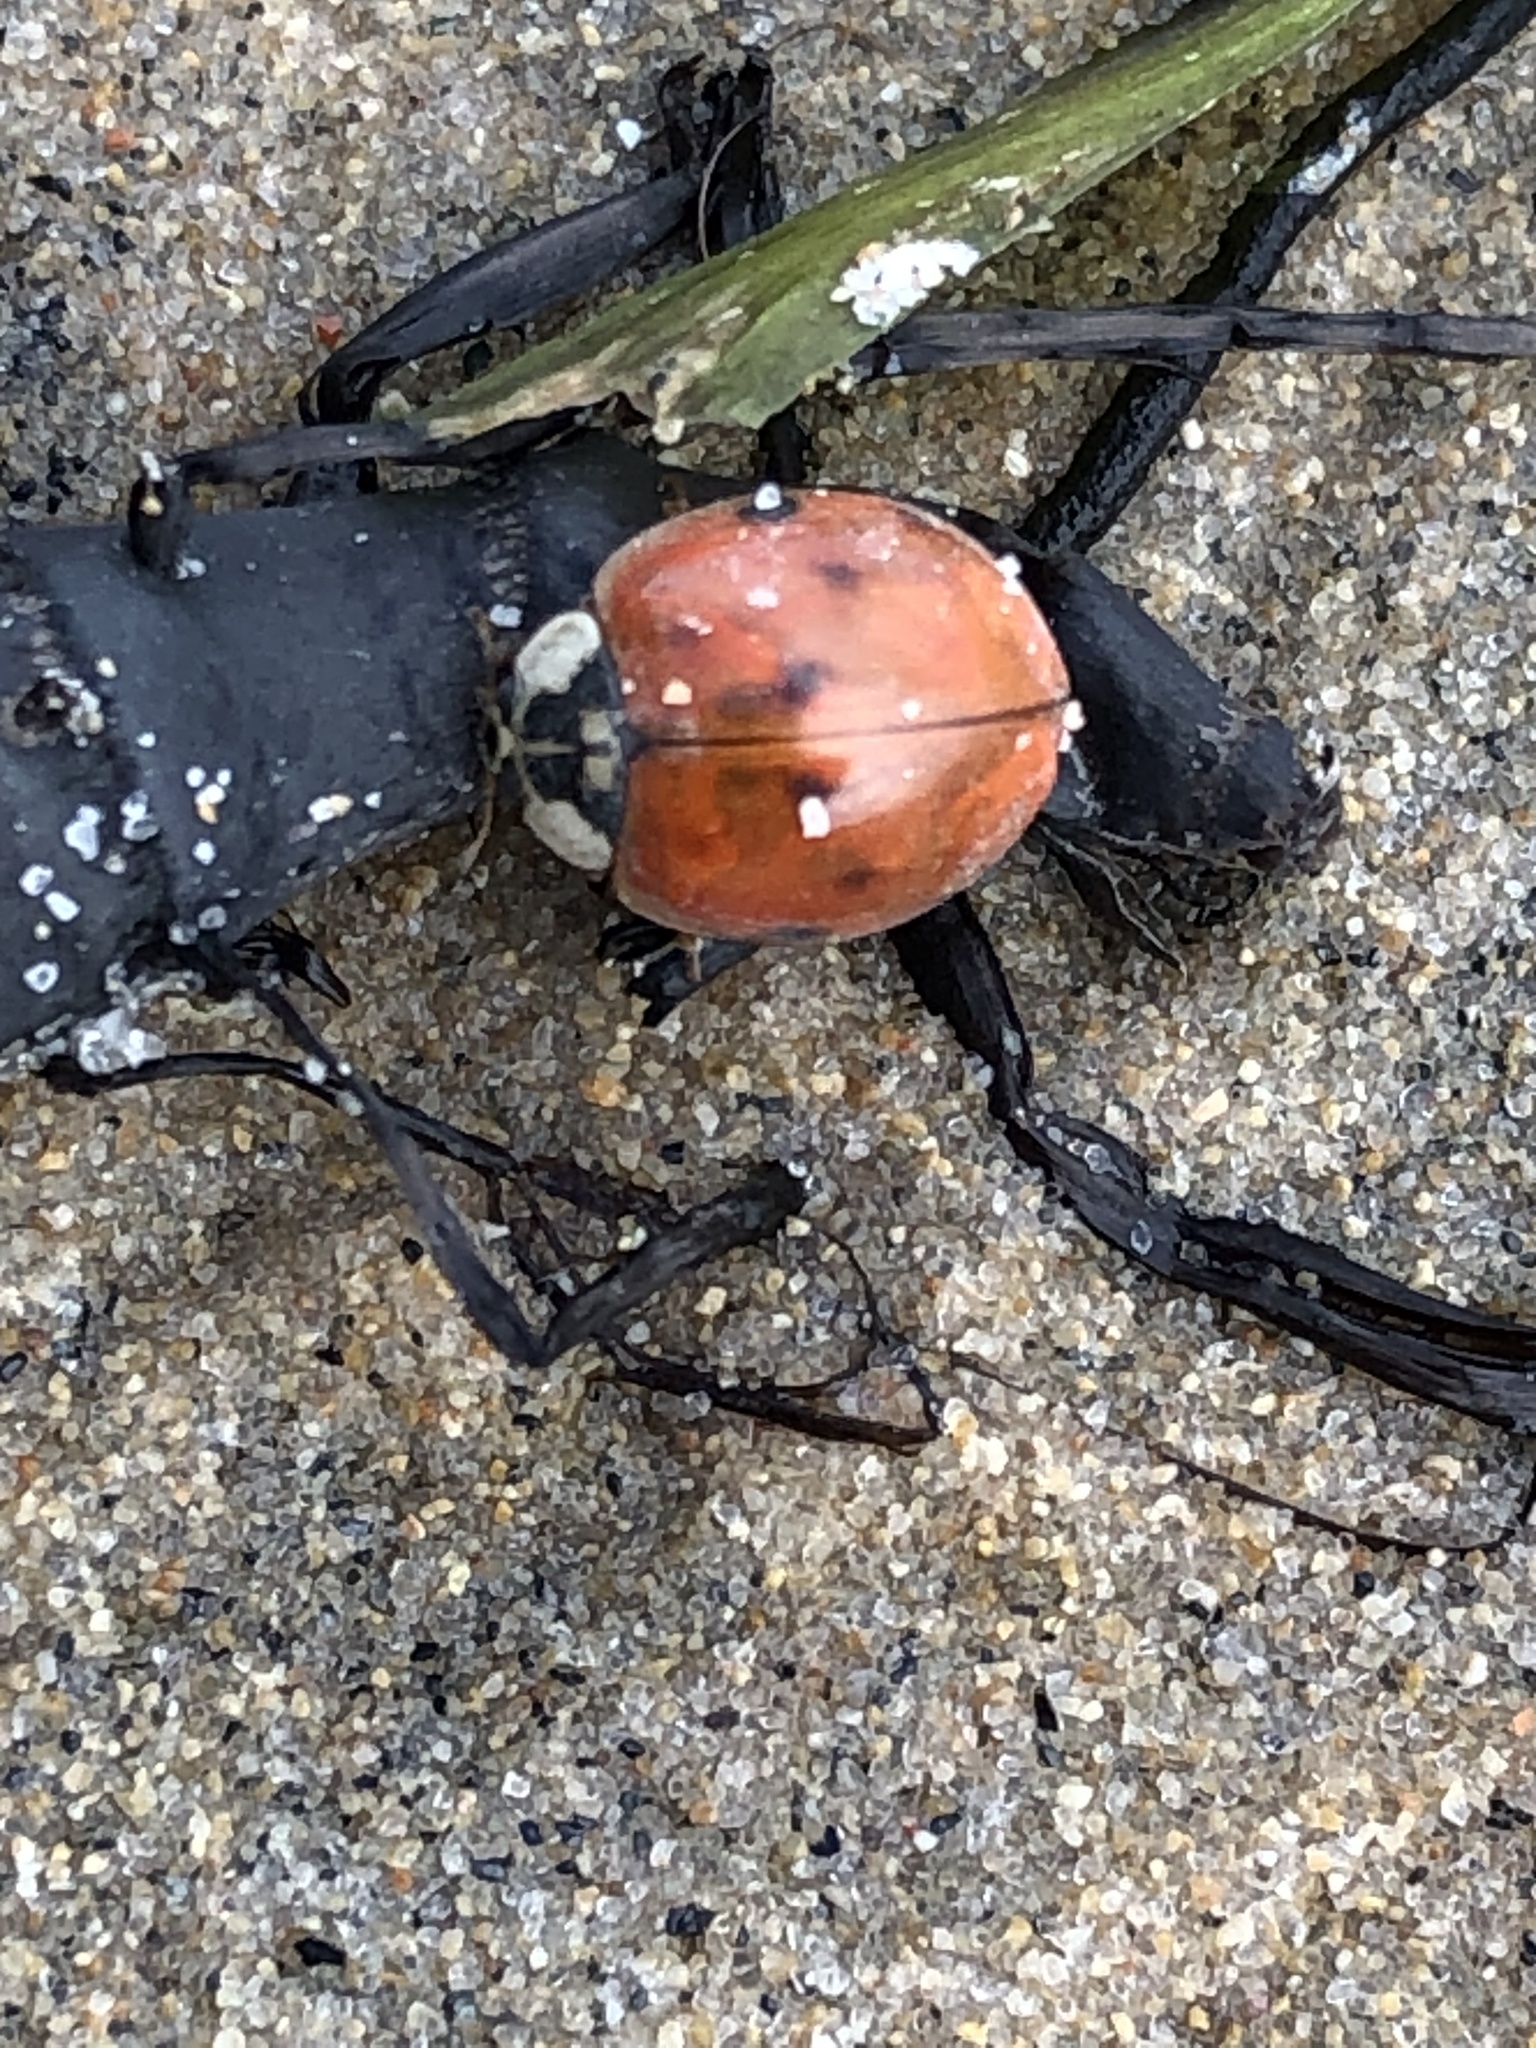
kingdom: Animalia
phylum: Arthropoda
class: Insecta
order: Coleoptera
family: Coccinellidae
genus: Harmonia
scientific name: Harmonia axyridis
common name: Harlequin ladybird
